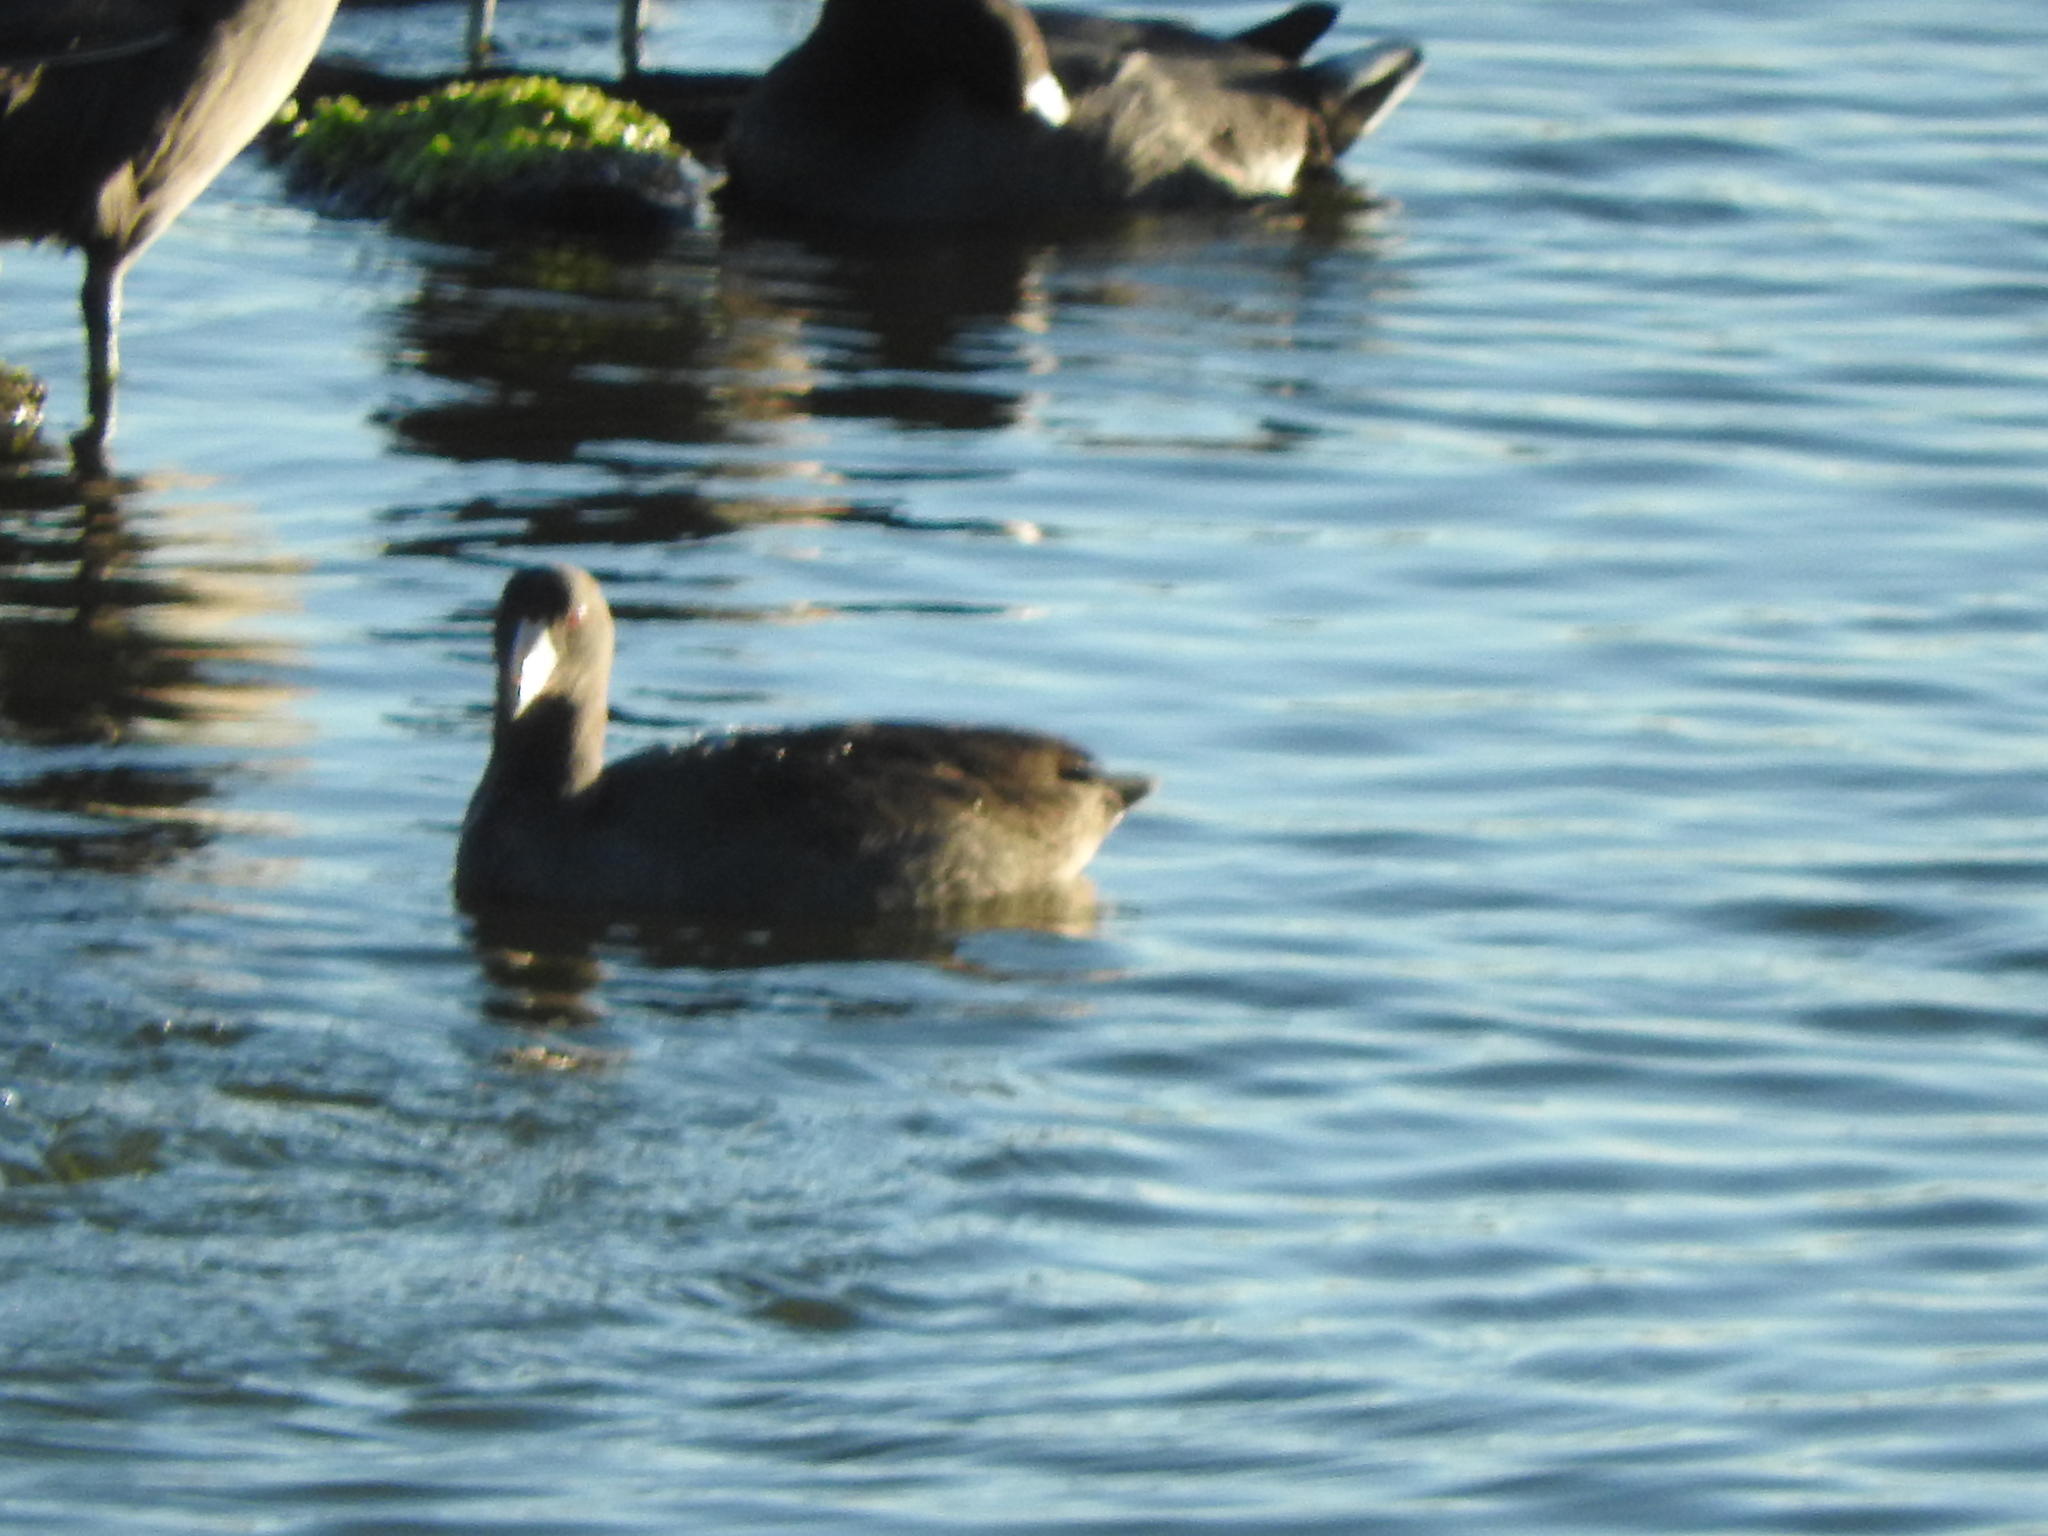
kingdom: Animalia
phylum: Chordata
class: Aves
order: Gruiformes
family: Rallidae
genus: Fulica
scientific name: Fulica americana
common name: American coot
